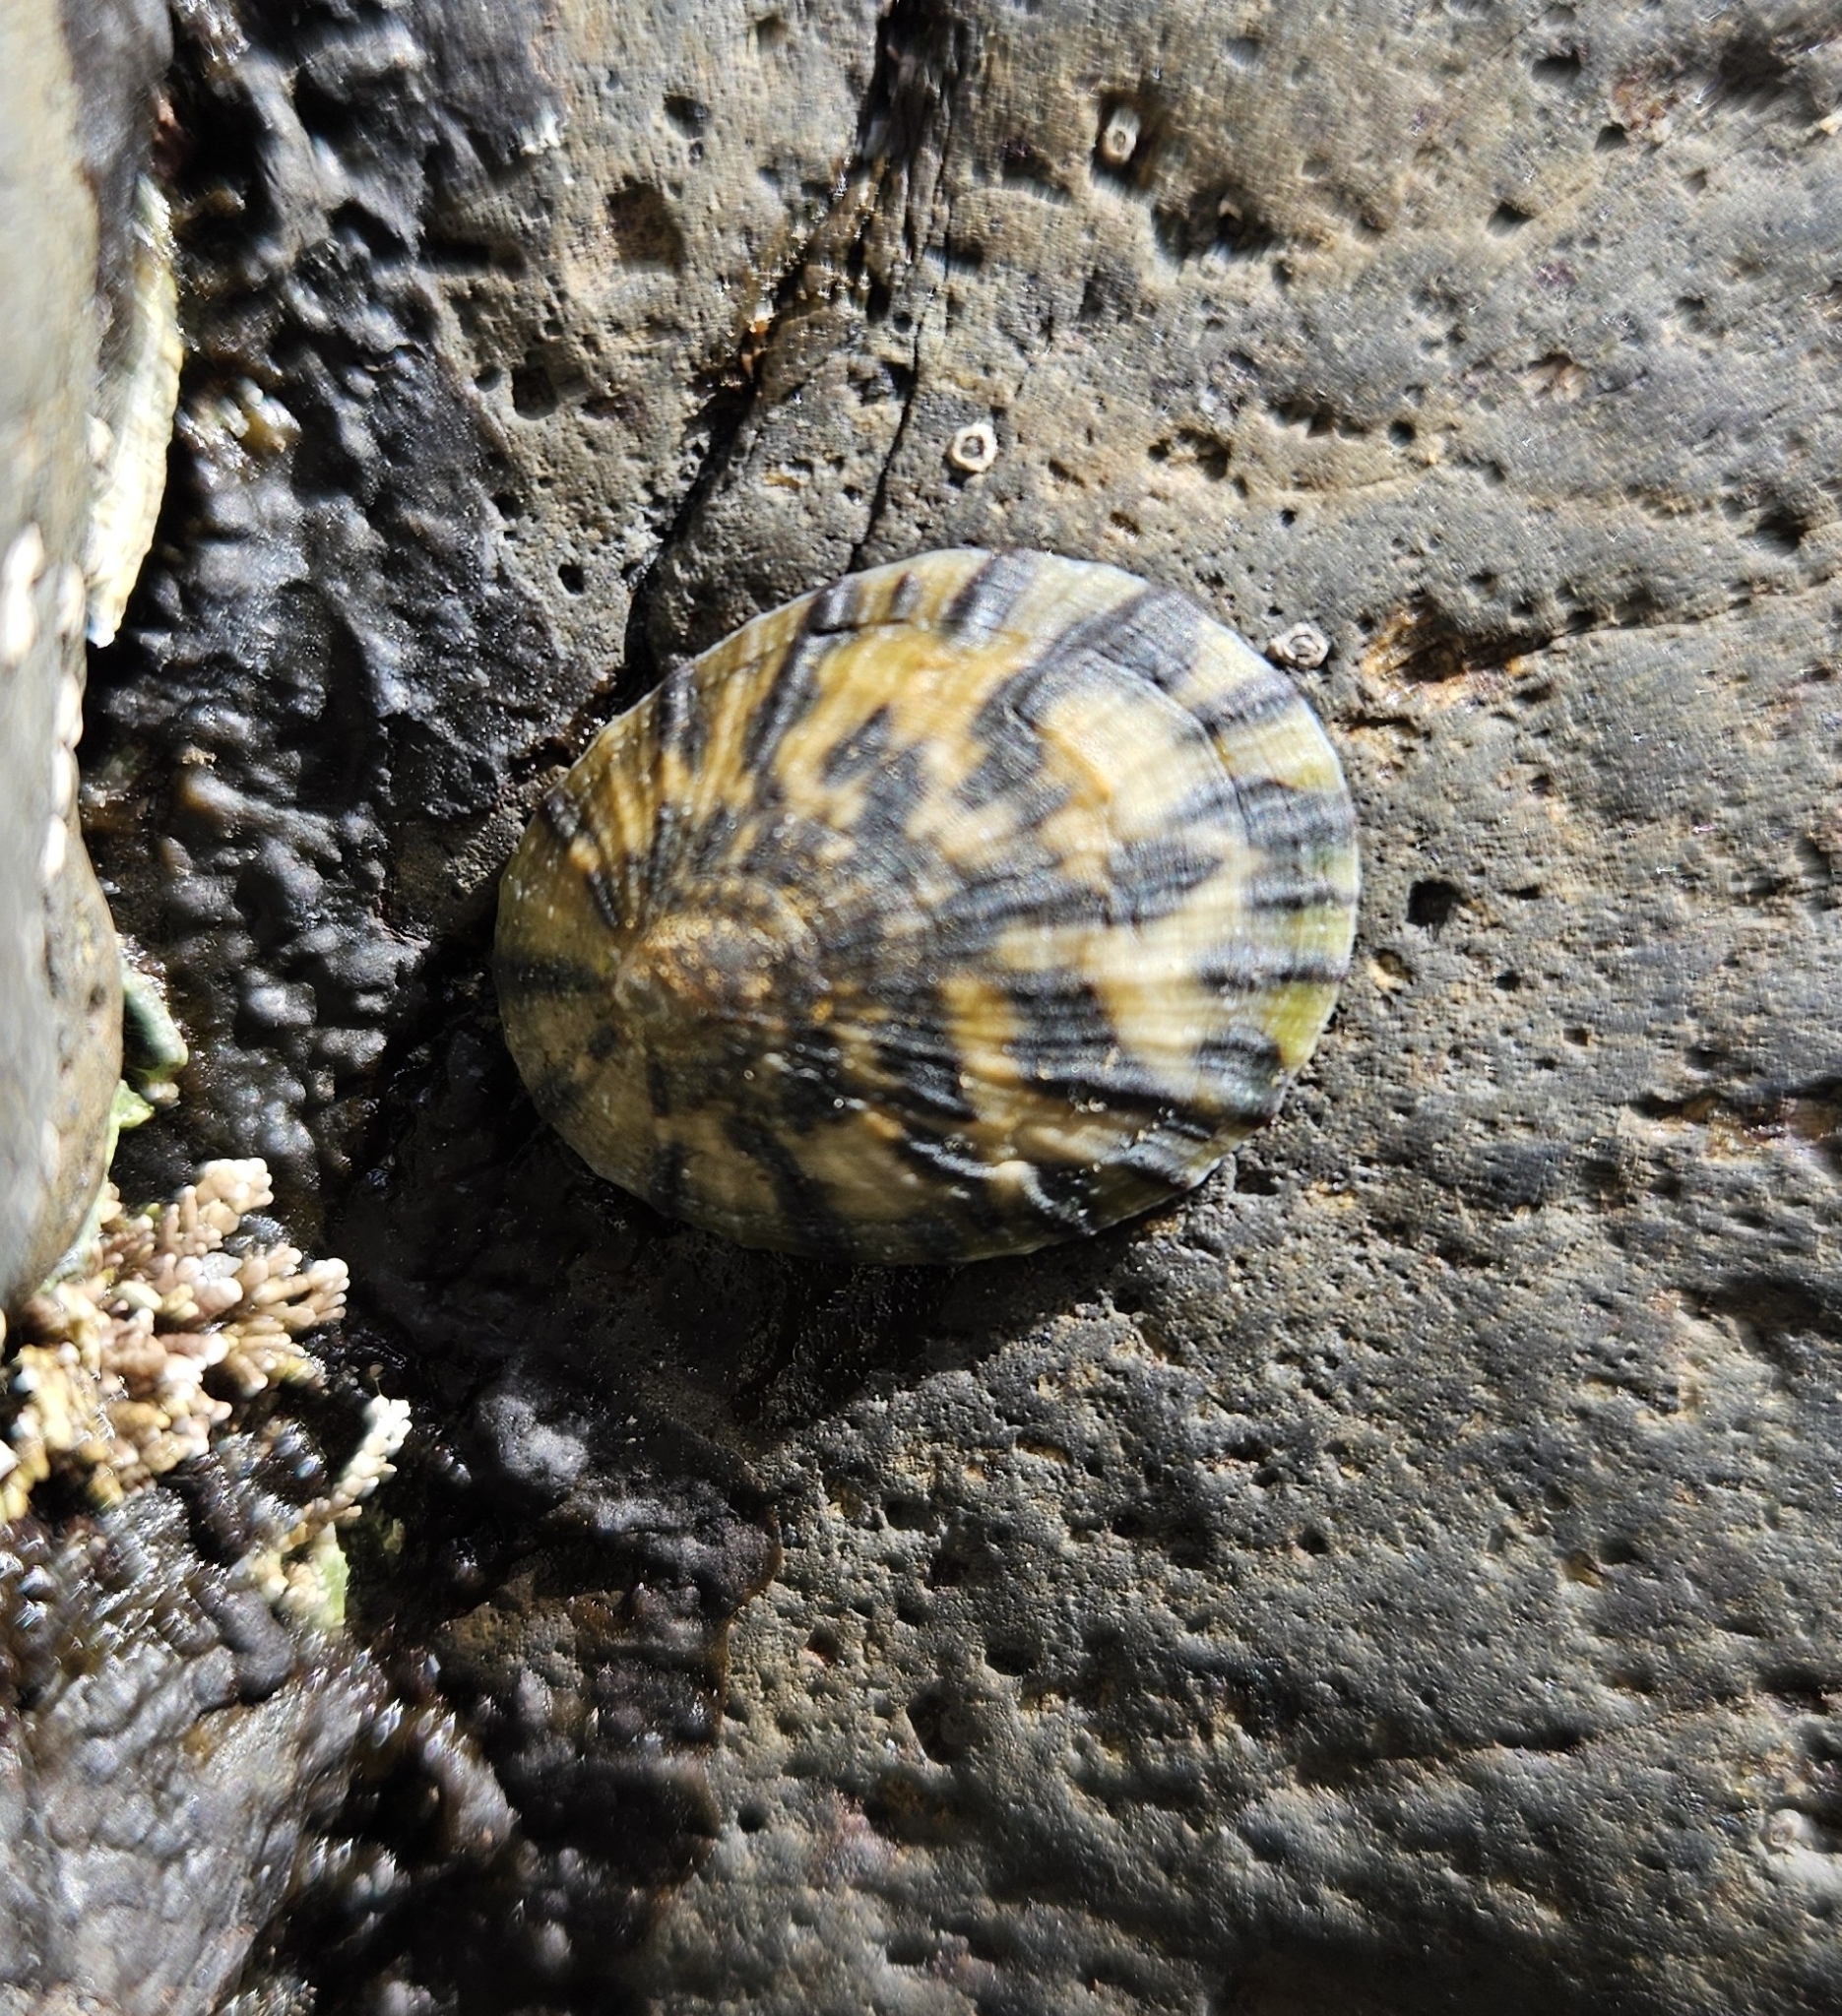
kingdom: Animalia
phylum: Mollusca
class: Gastropoda
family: Nacellidae
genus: Cellana
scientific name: Cellana radians
